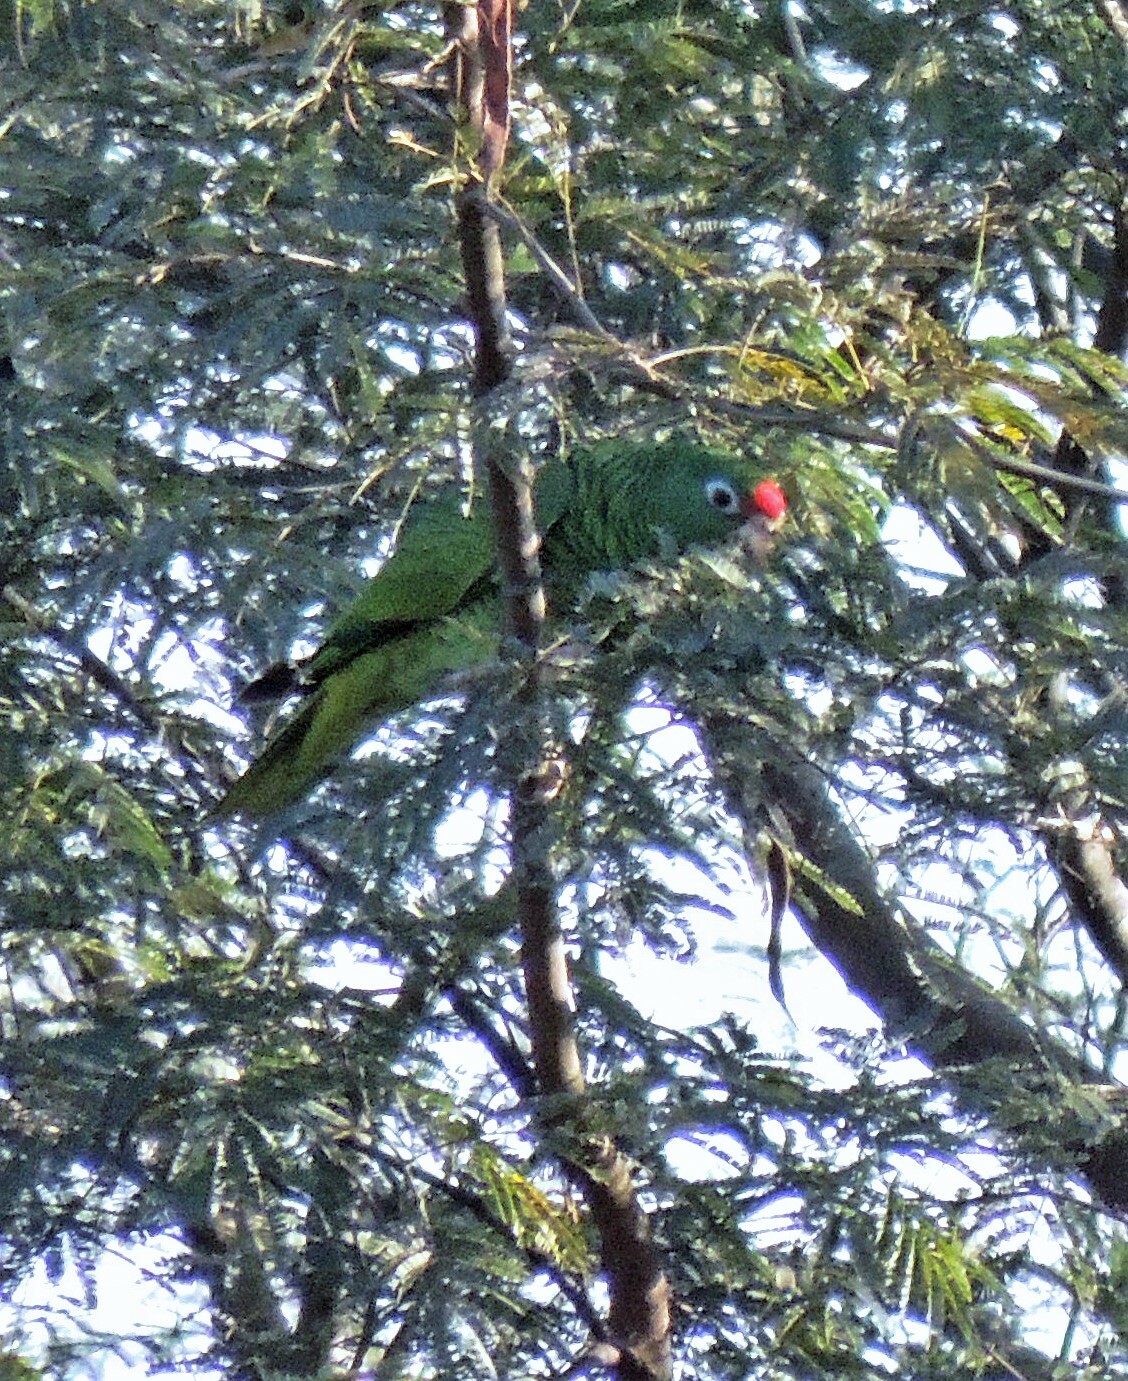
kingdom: Animalia
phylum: Chordata
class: Aves
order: Psittaciformes
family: Psittacidae
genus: Amazona
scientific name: Amazona tucumana
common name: Tucuman amazon
